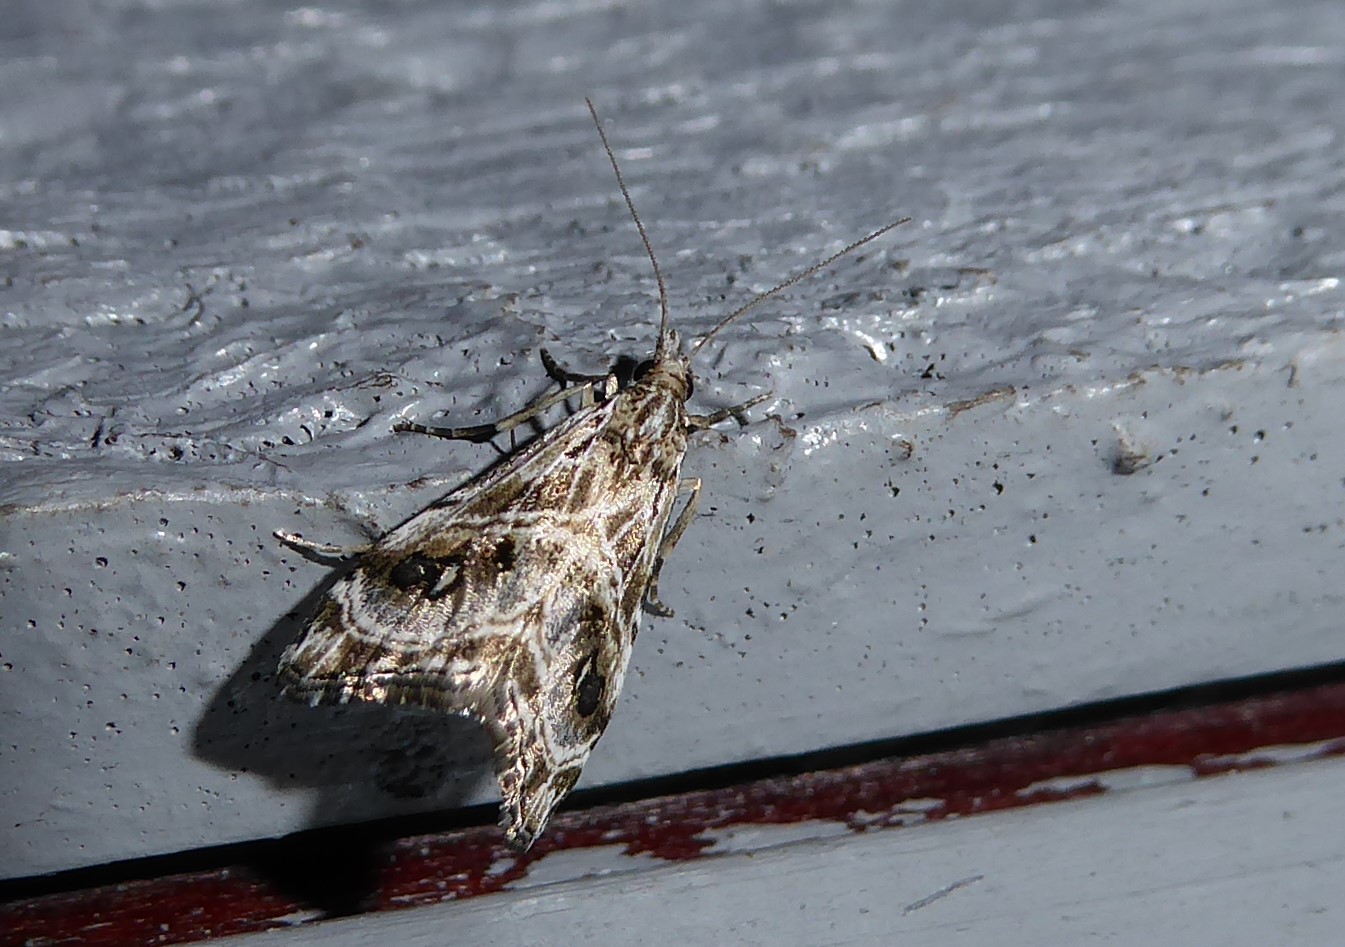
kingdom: Animalia
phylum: Arthropoda
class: Insecta
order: Lepidoptera
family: Crambidae
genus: Gadira
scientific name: Gadira acerella
